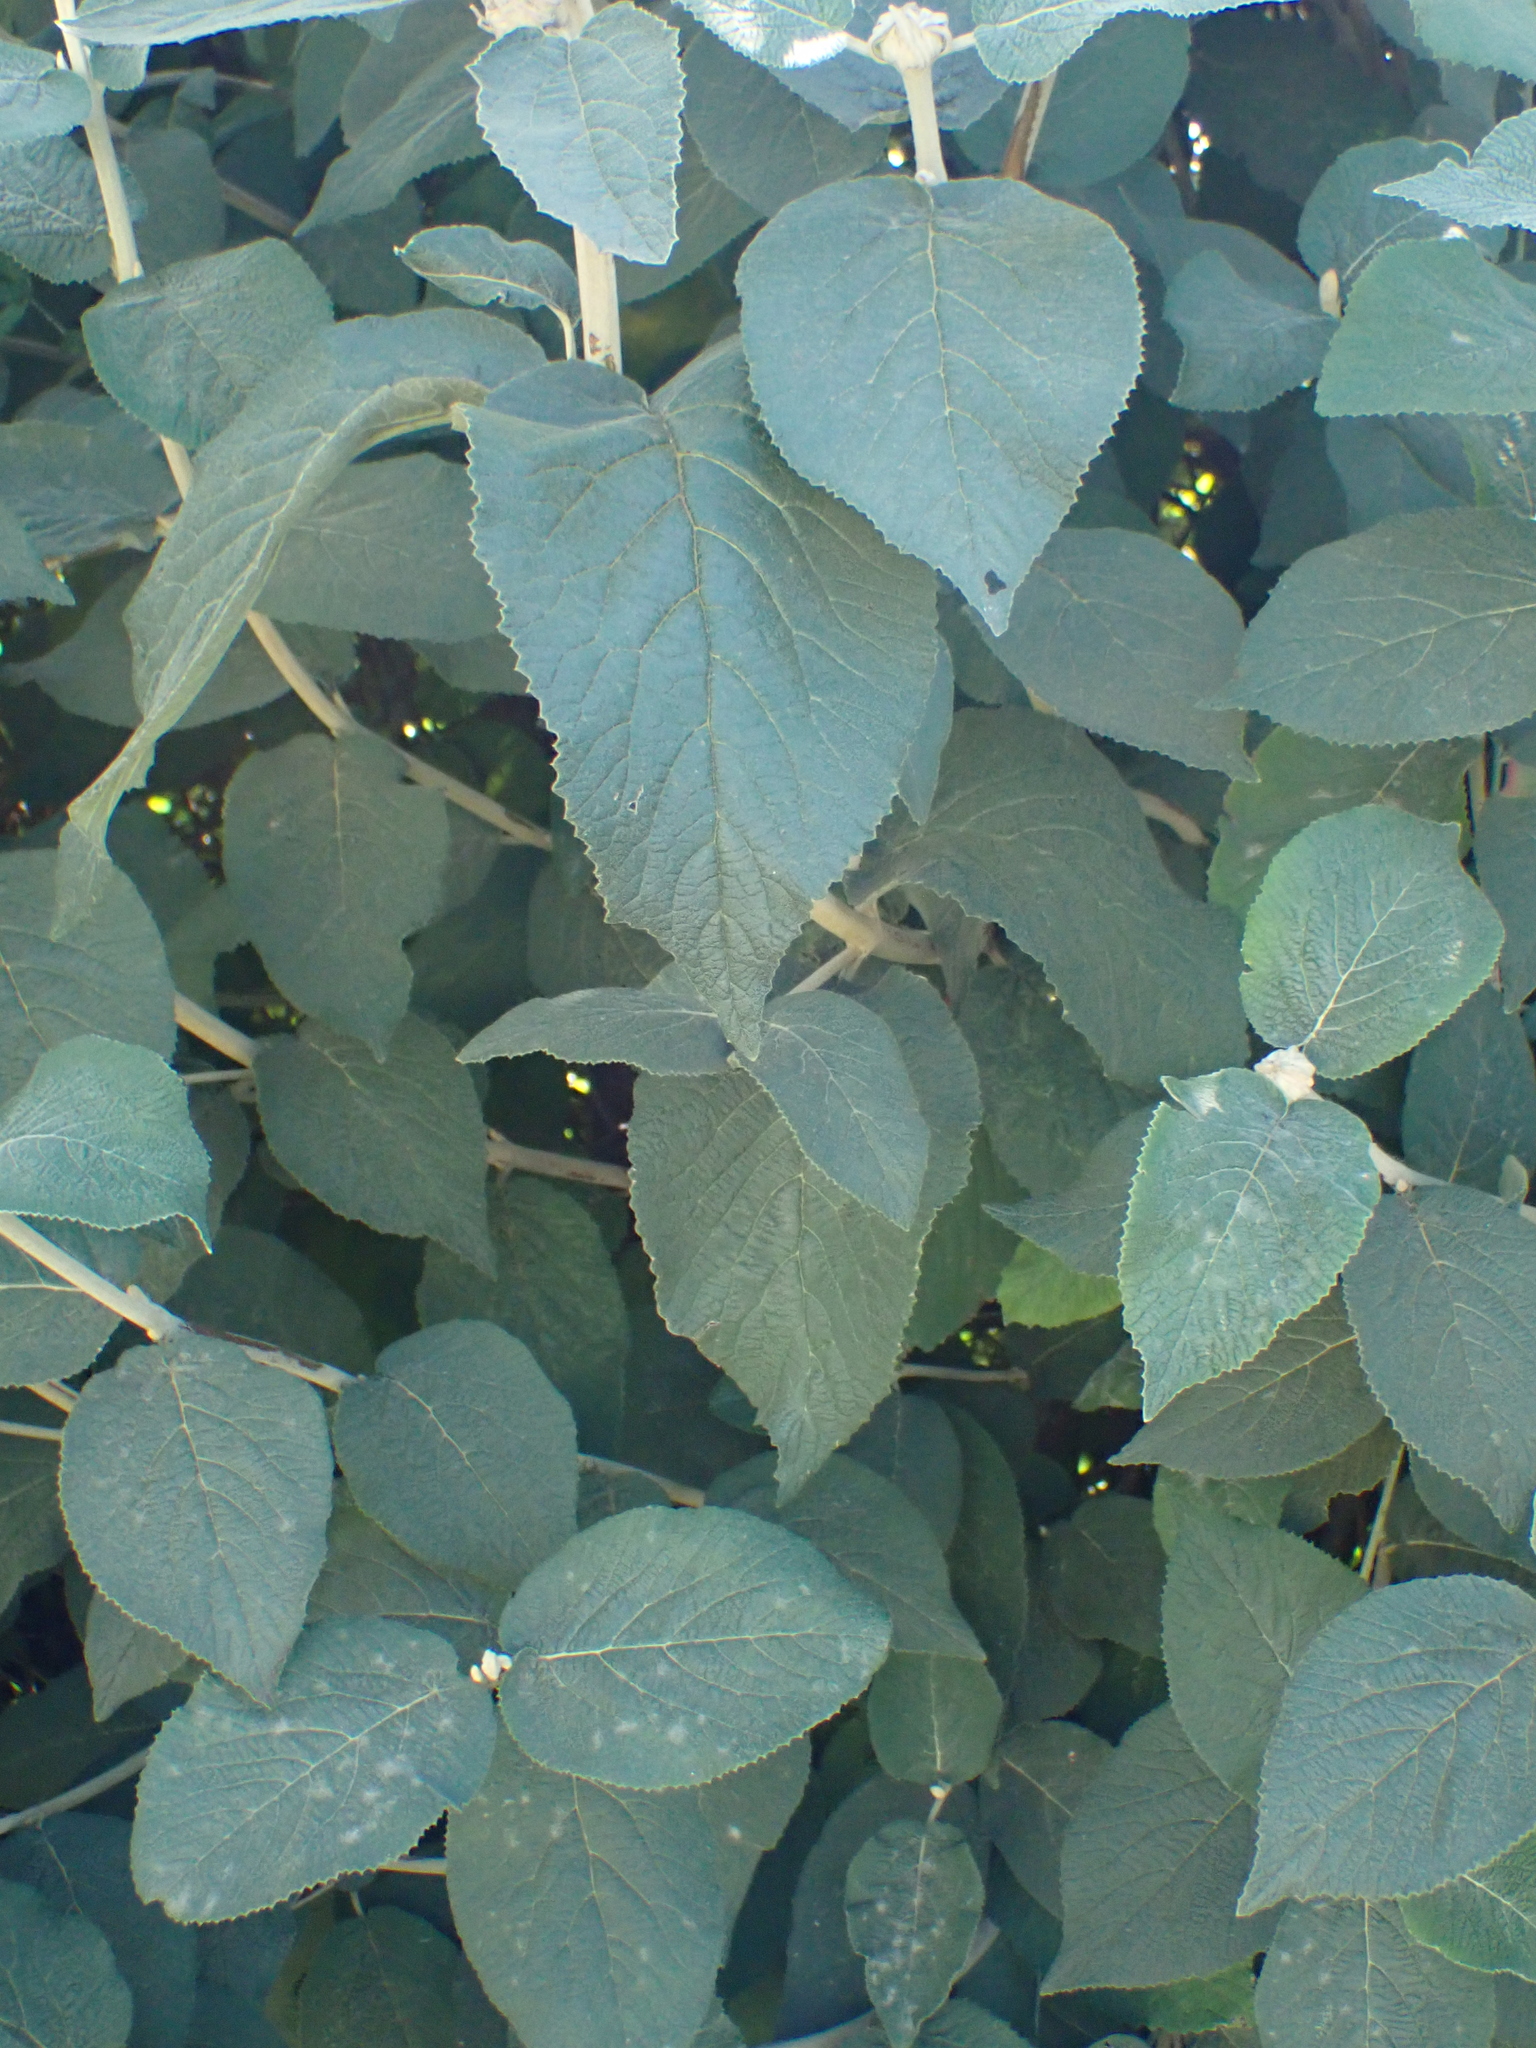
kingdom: Plantae
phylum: Tracheophyta
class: Magnoliopsida
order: Dipsacales
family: Viburnaceae
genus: Viburnum
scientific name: Viburnum lantana
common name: Wayfaring tree
